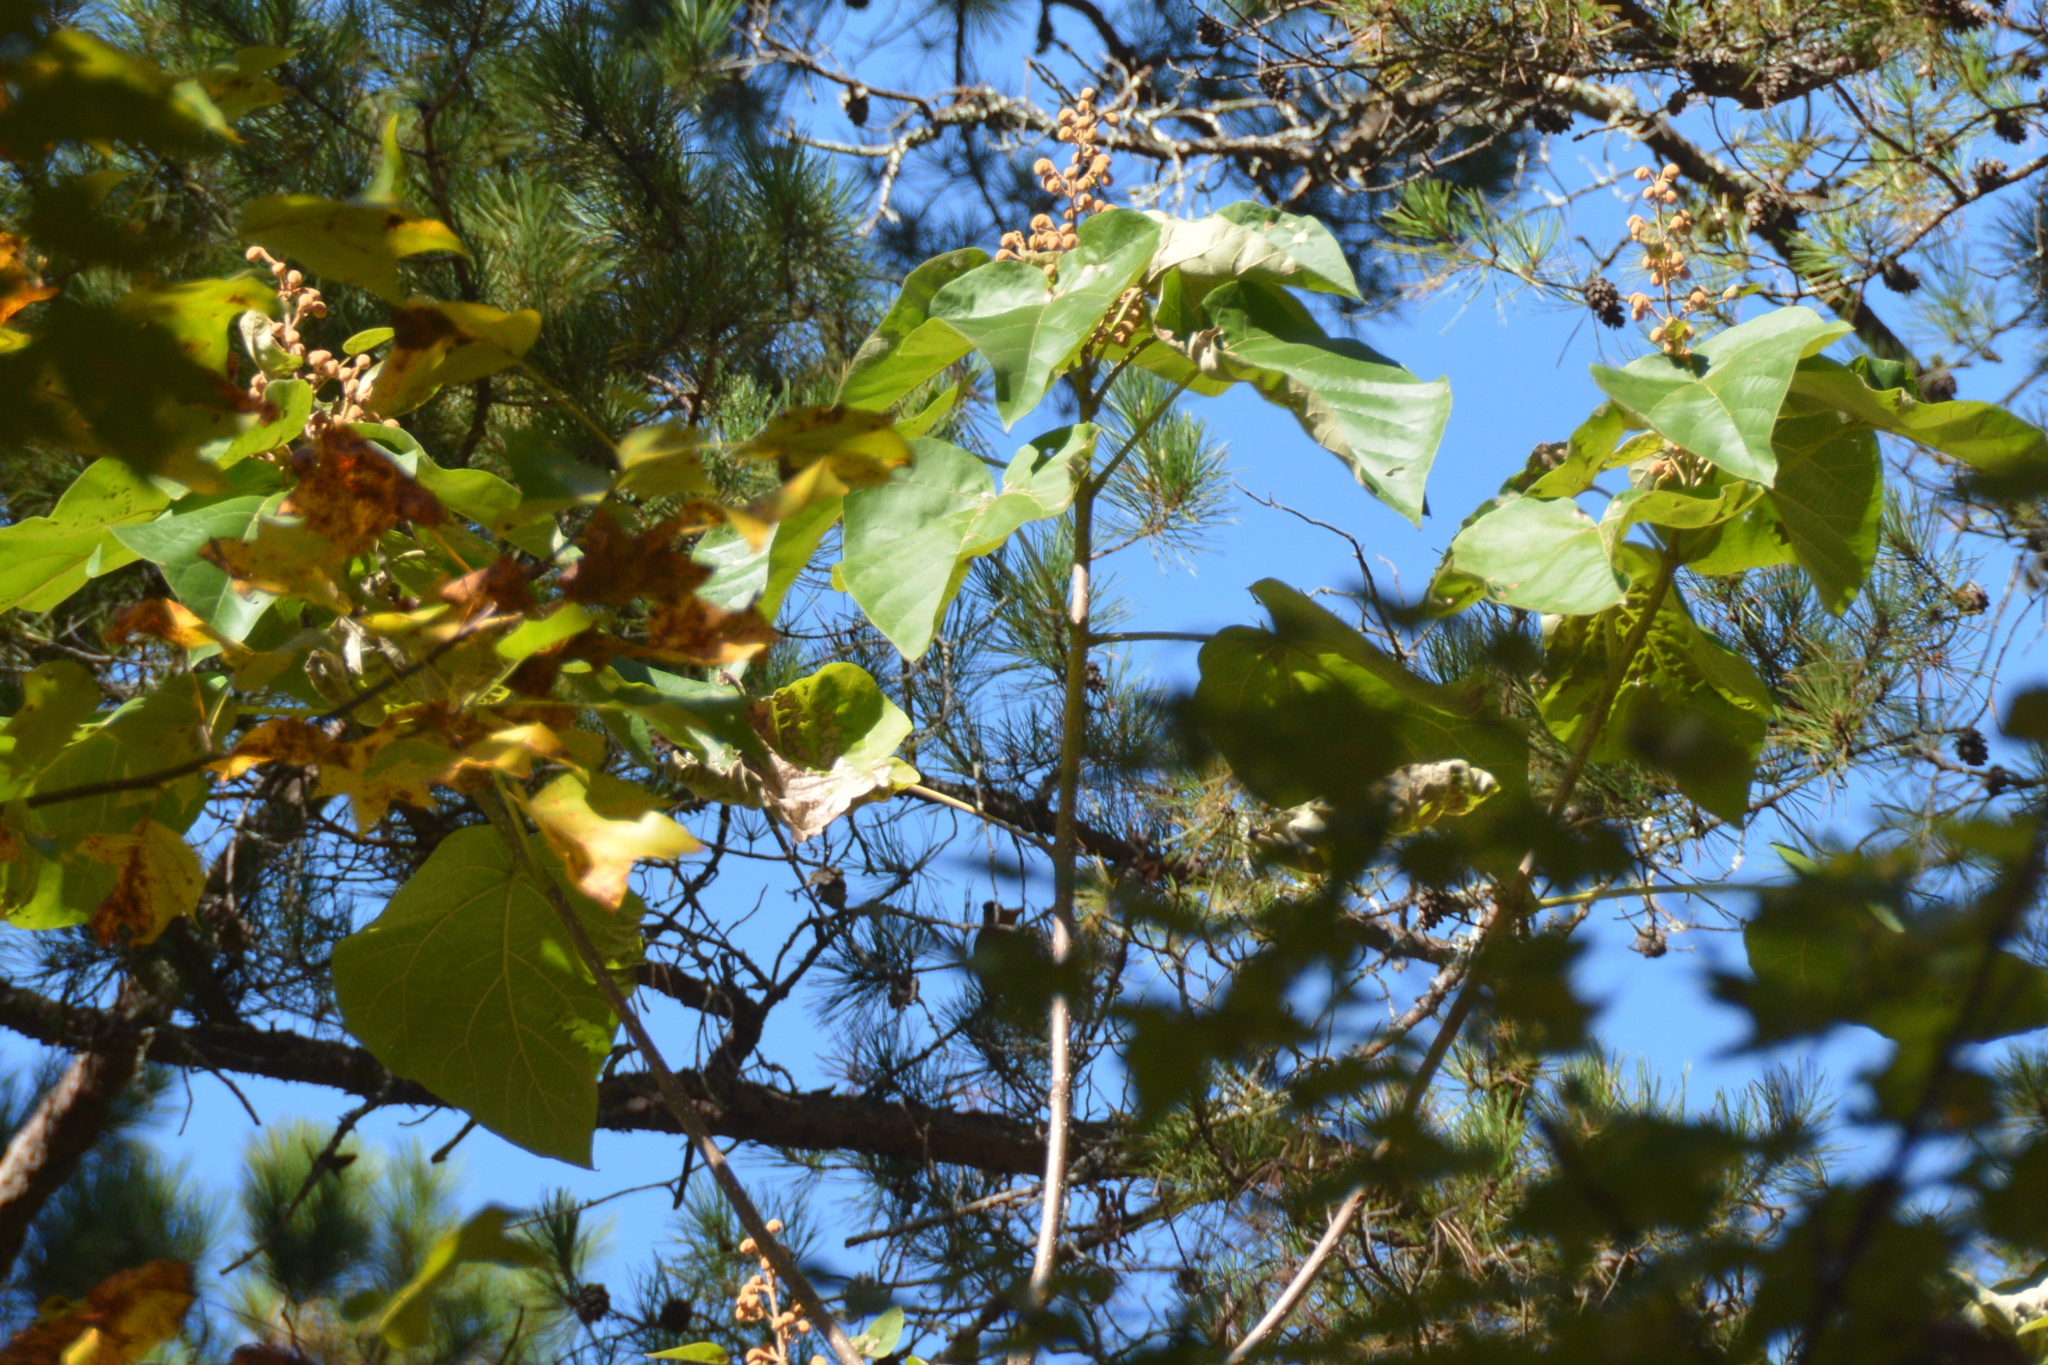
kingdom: Plantae
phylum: Tracheophyta
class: Magnoliopsida
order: Lamiales
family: Paulowniaceae
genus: Paulownia
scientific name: Paulownia tomentosa
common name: Foxglove-tree
